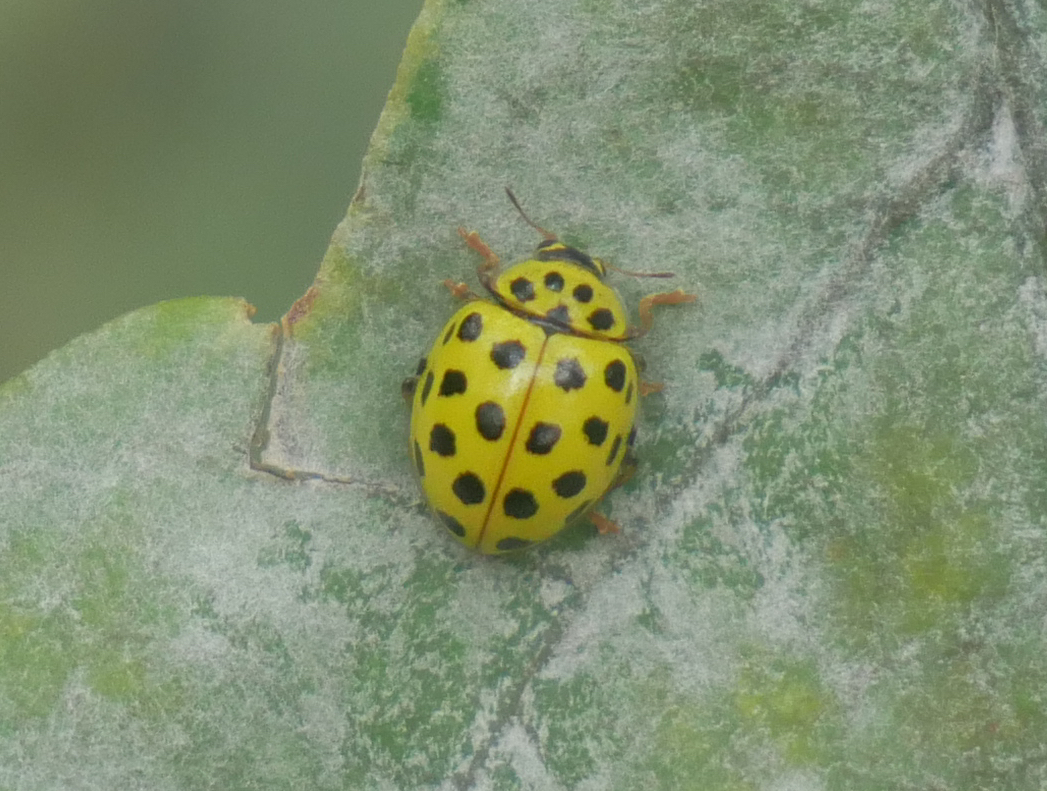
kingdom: Animalia
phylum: Arthropoda
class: Insecta
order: Coleoptera
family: Coccinellidae
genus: Psyllobora
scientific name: Psyllobora vigintiduopunctata
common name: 22-spot ladybird
